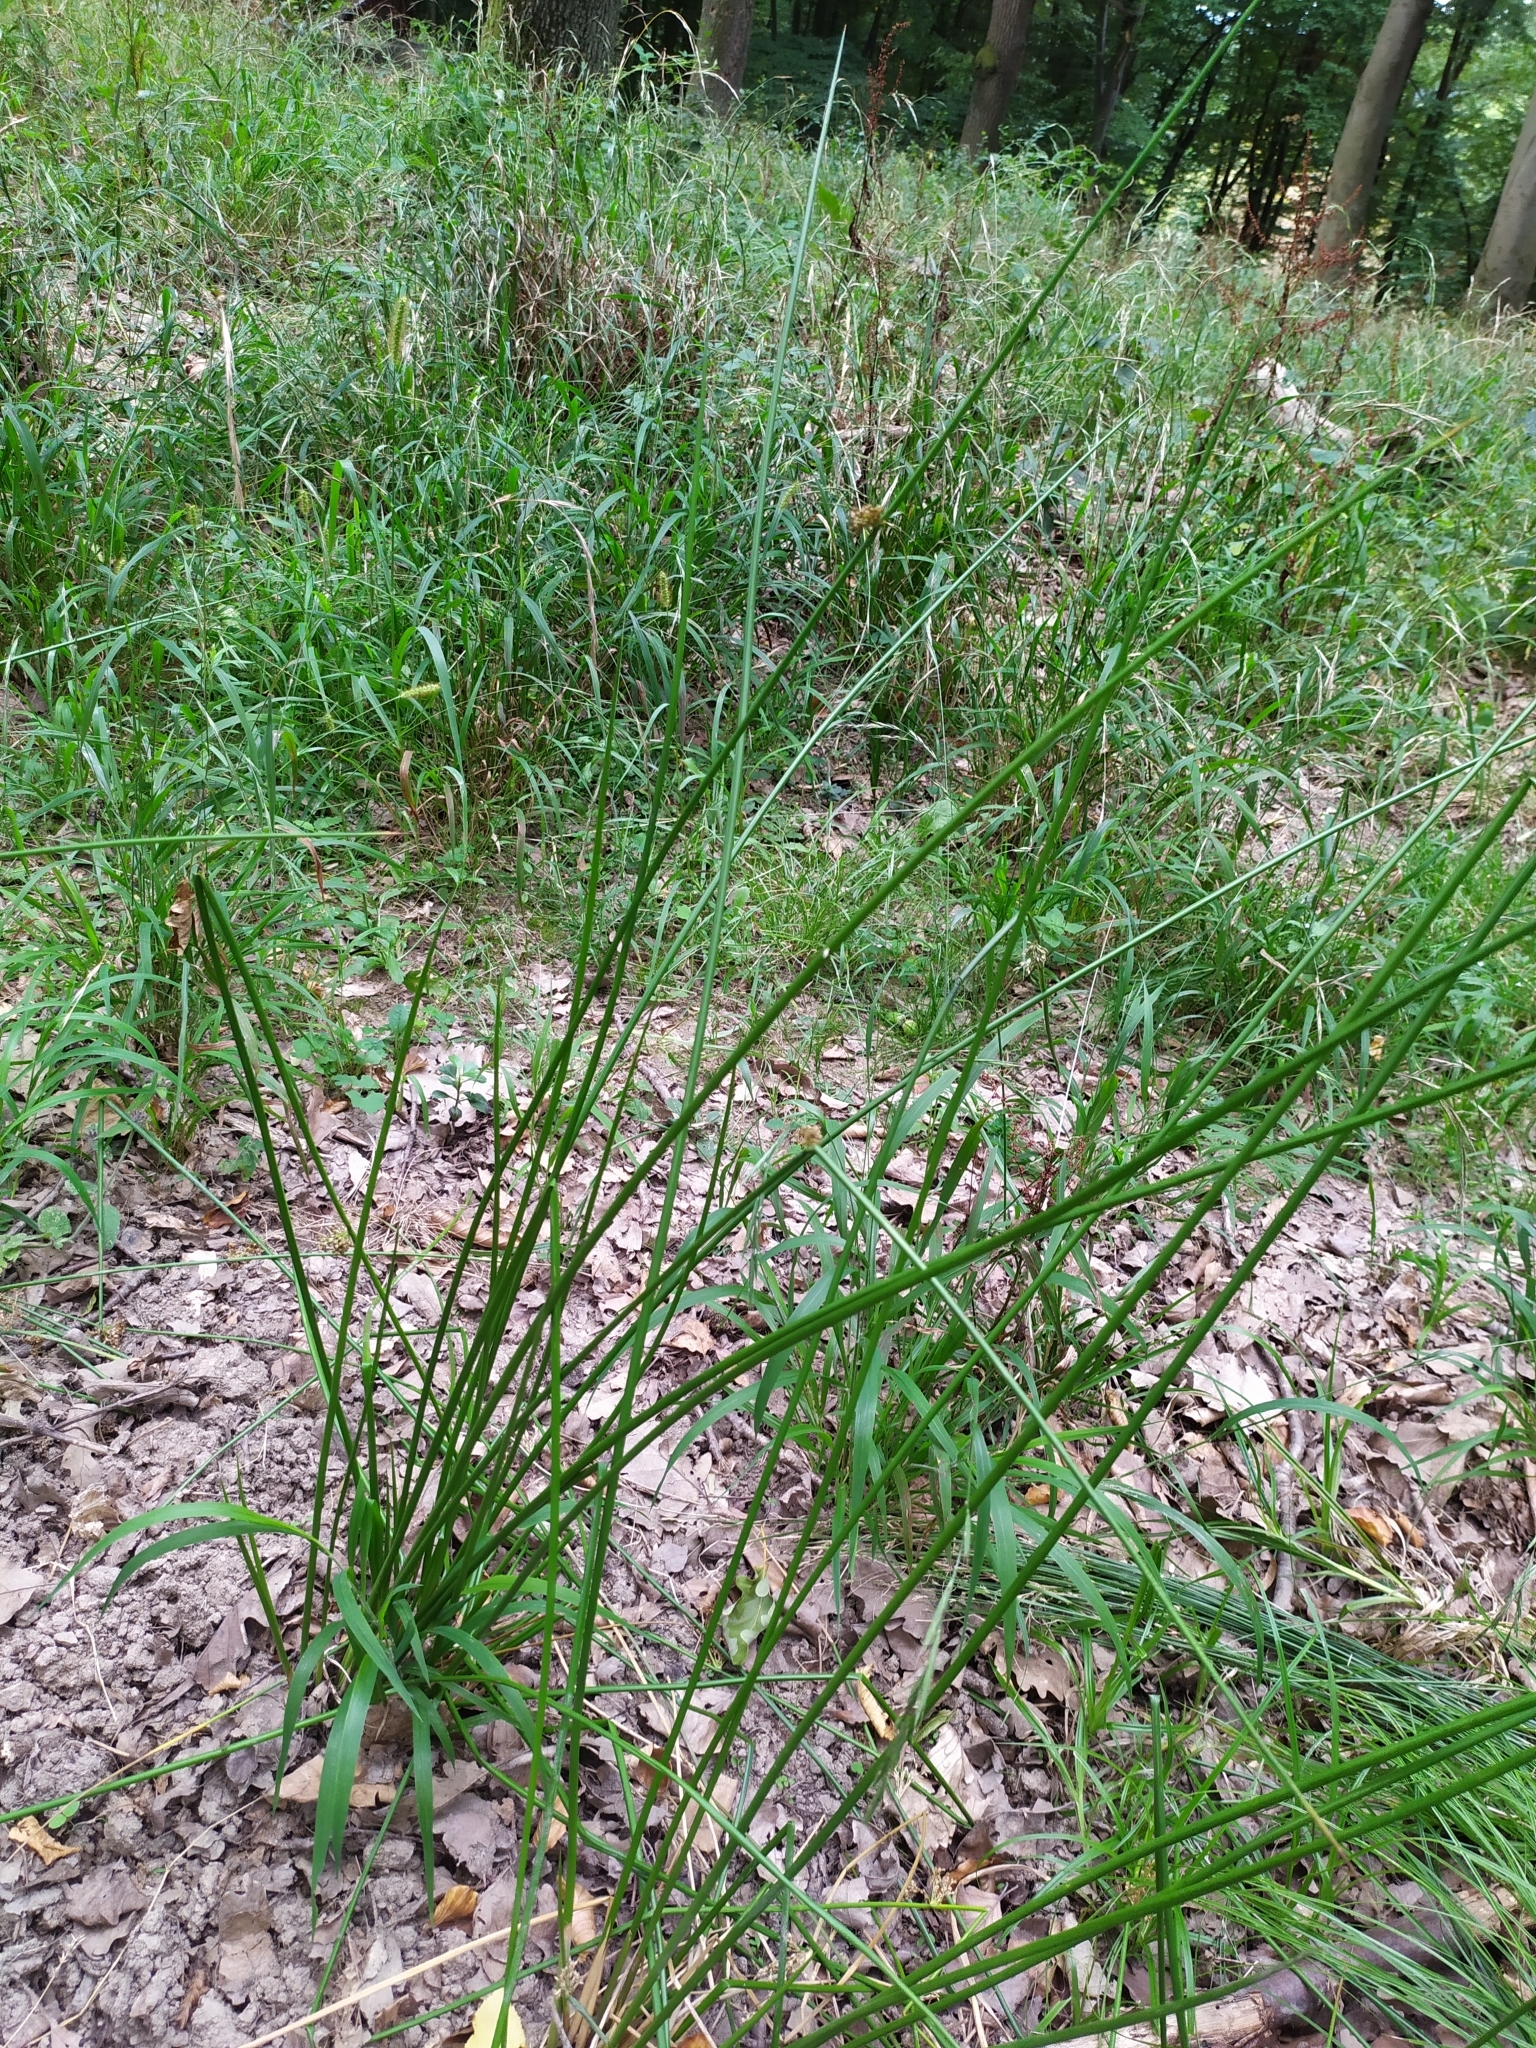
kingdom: Plantae
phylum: Tracheophyta
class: Liliopsida
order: Poales
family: Juncaceae
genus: Juncus
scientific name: Juncus effusus
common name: Soft rush
